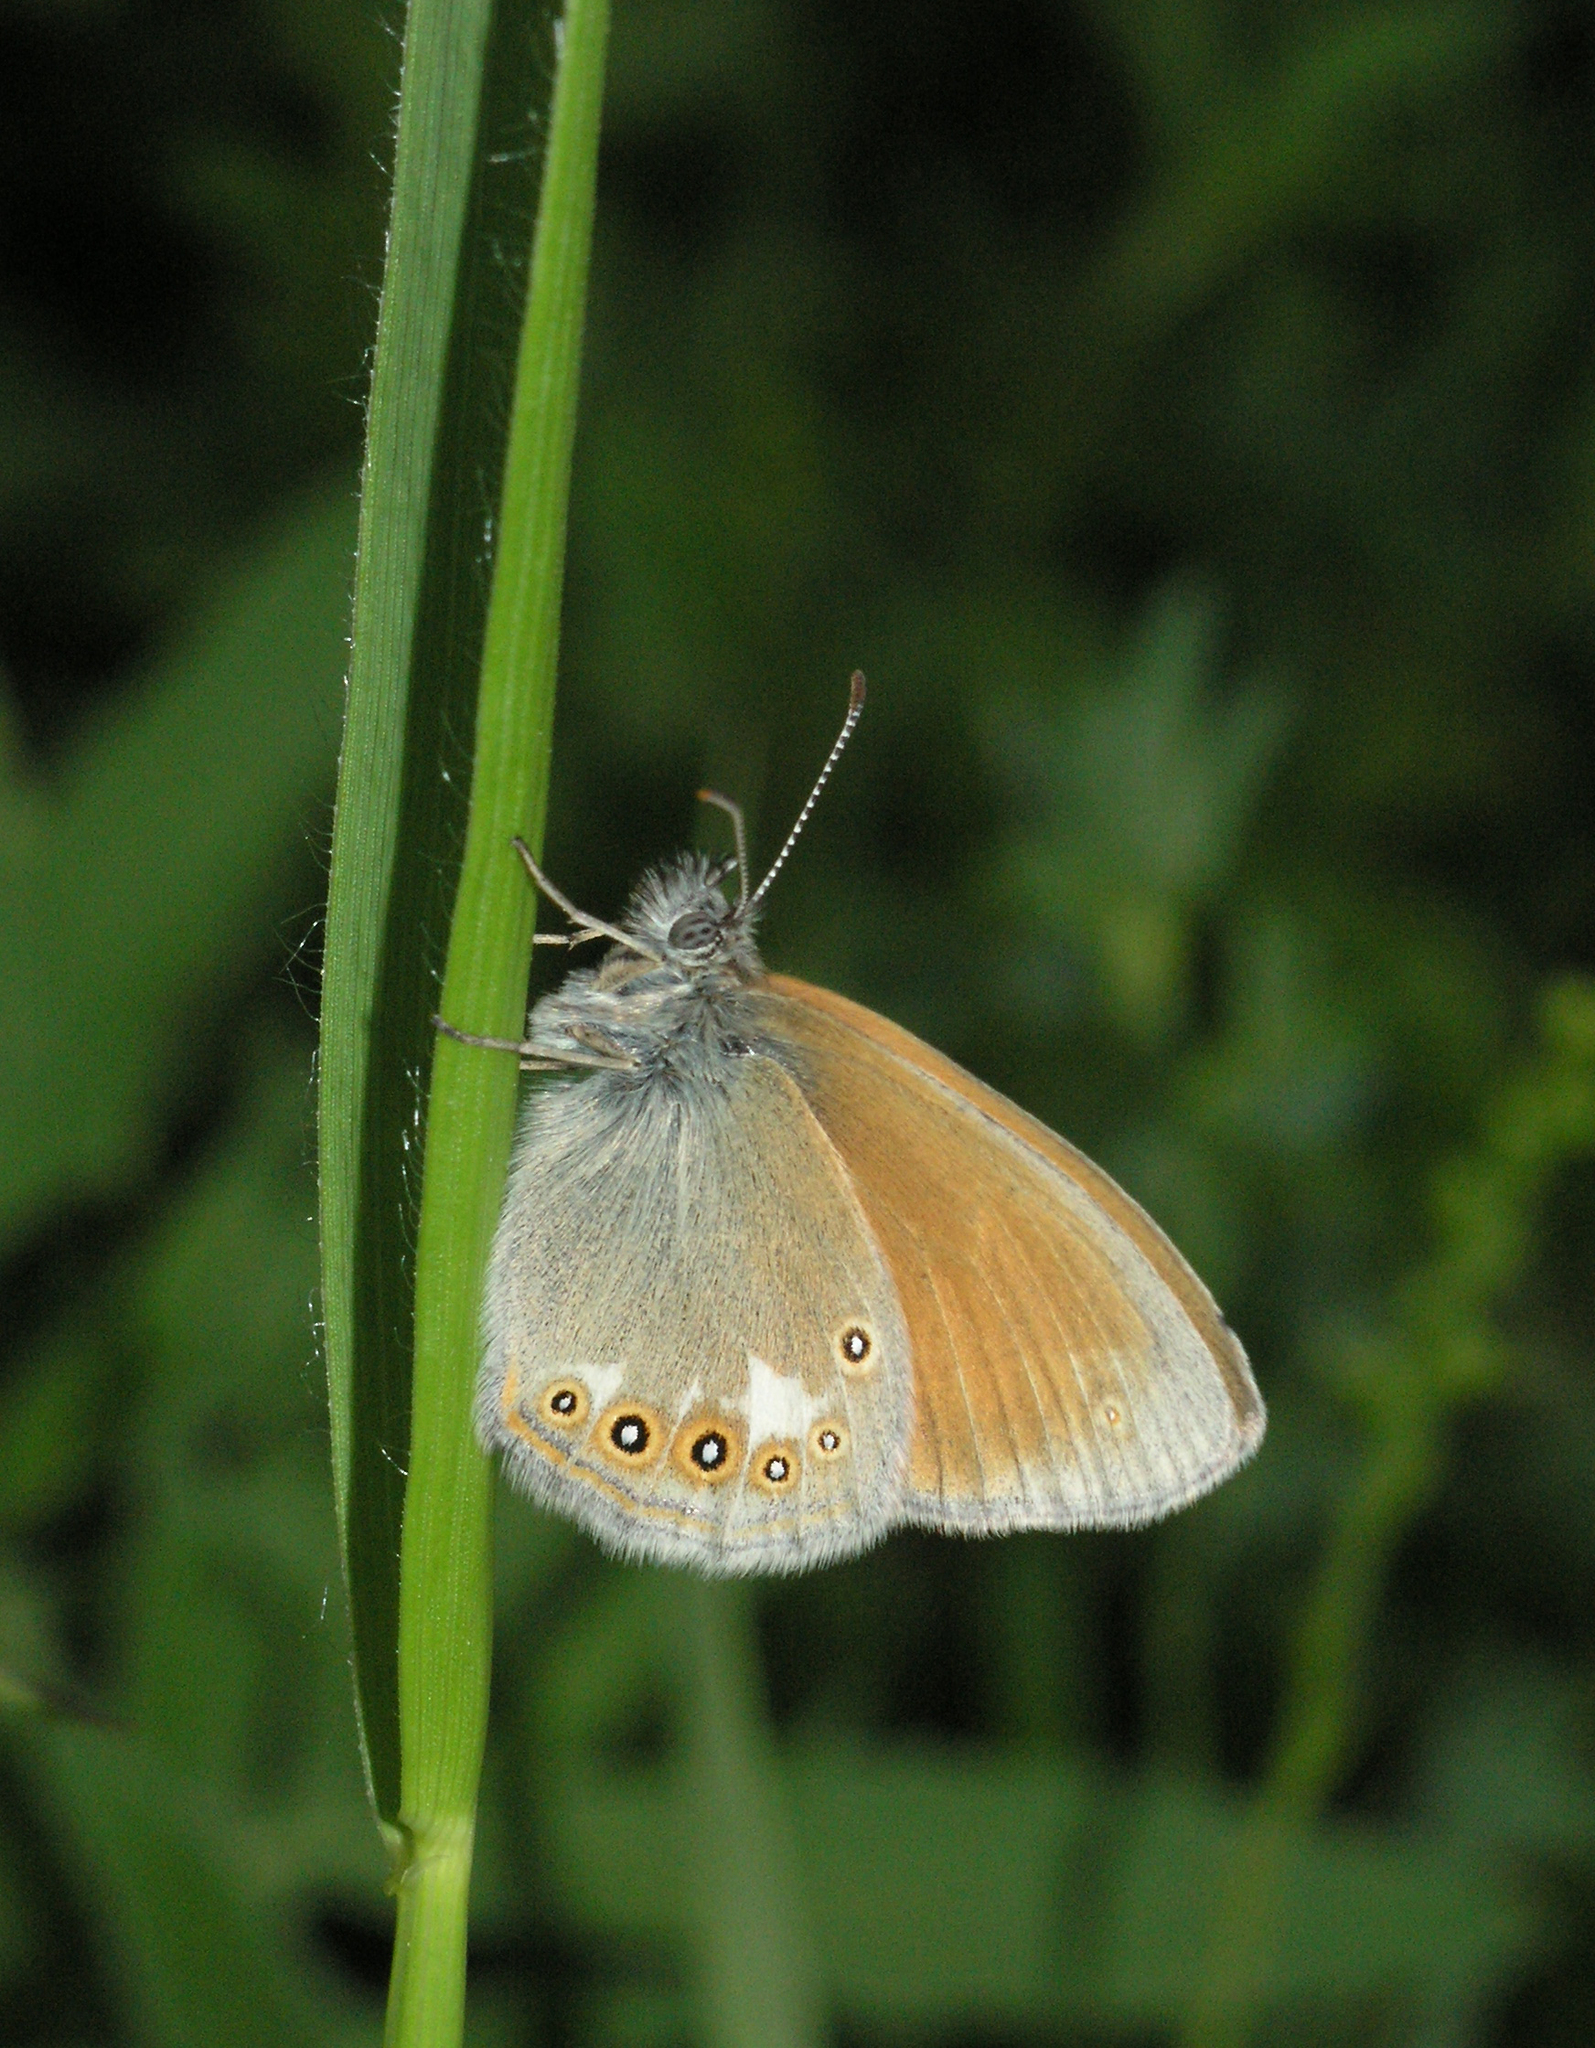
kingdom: Animalia
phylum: Arthropoda
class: Insecta
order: Lepidoptera
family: Nymphalidae
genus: Coenonympha
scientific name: Coenonympha iphis
